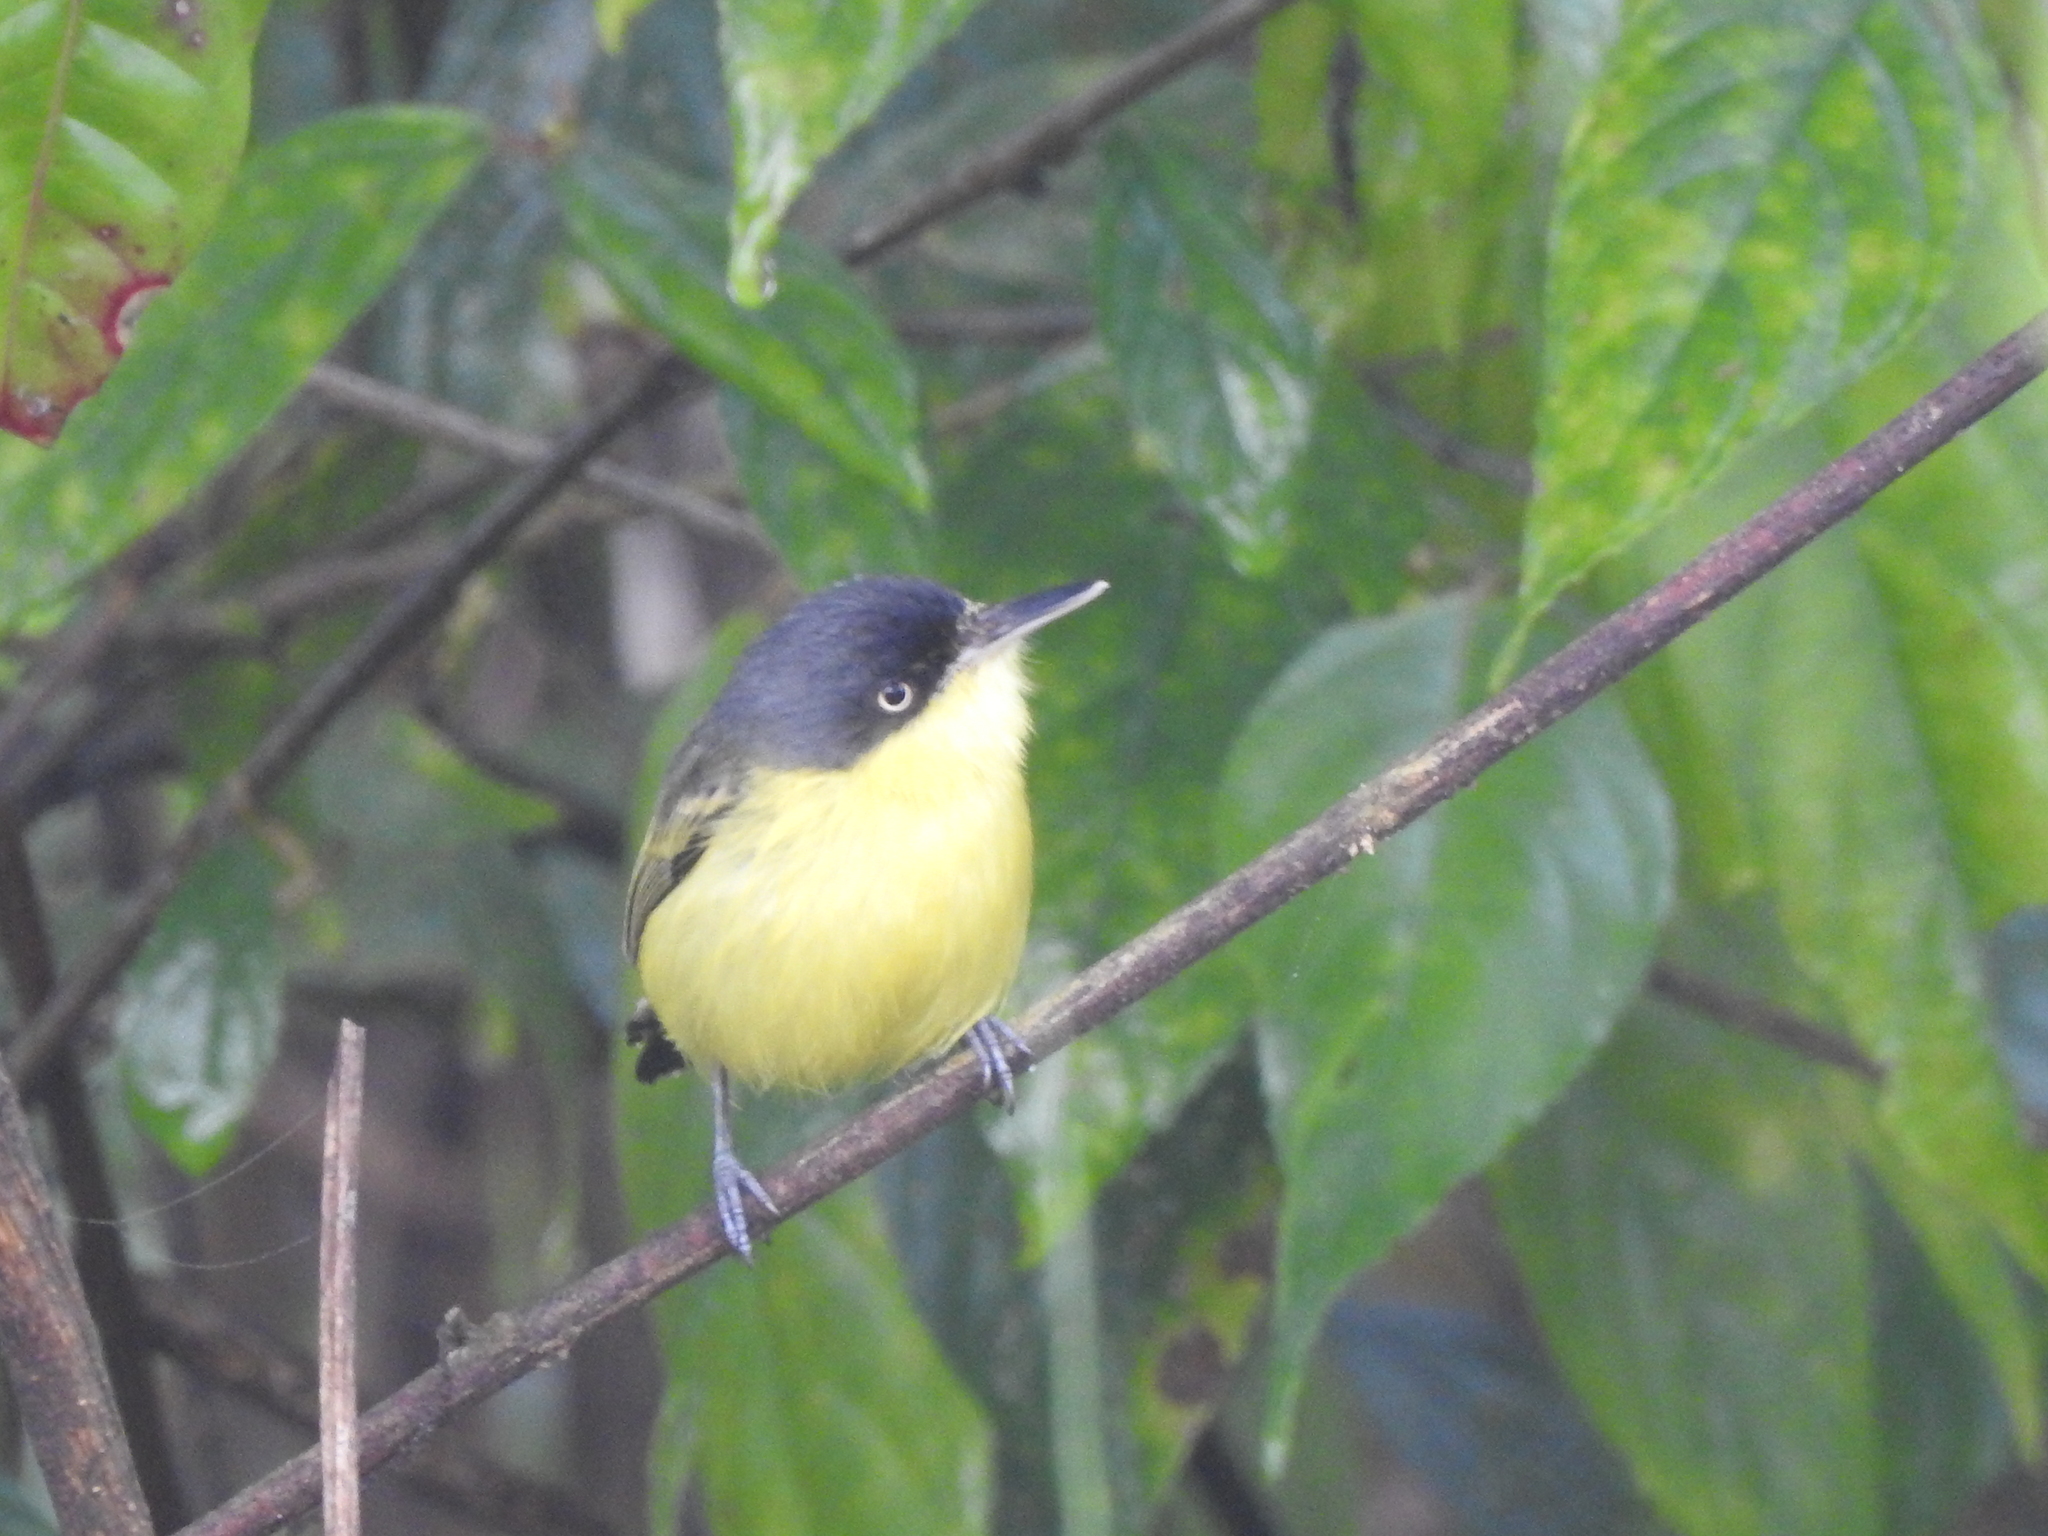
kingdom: Animalia
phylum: Chordata
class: Aves
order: Passeriformes
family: Tyrannidae
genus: Todirostrum
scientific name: Todirostrum cinereum
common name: Common tody-flycatcher
